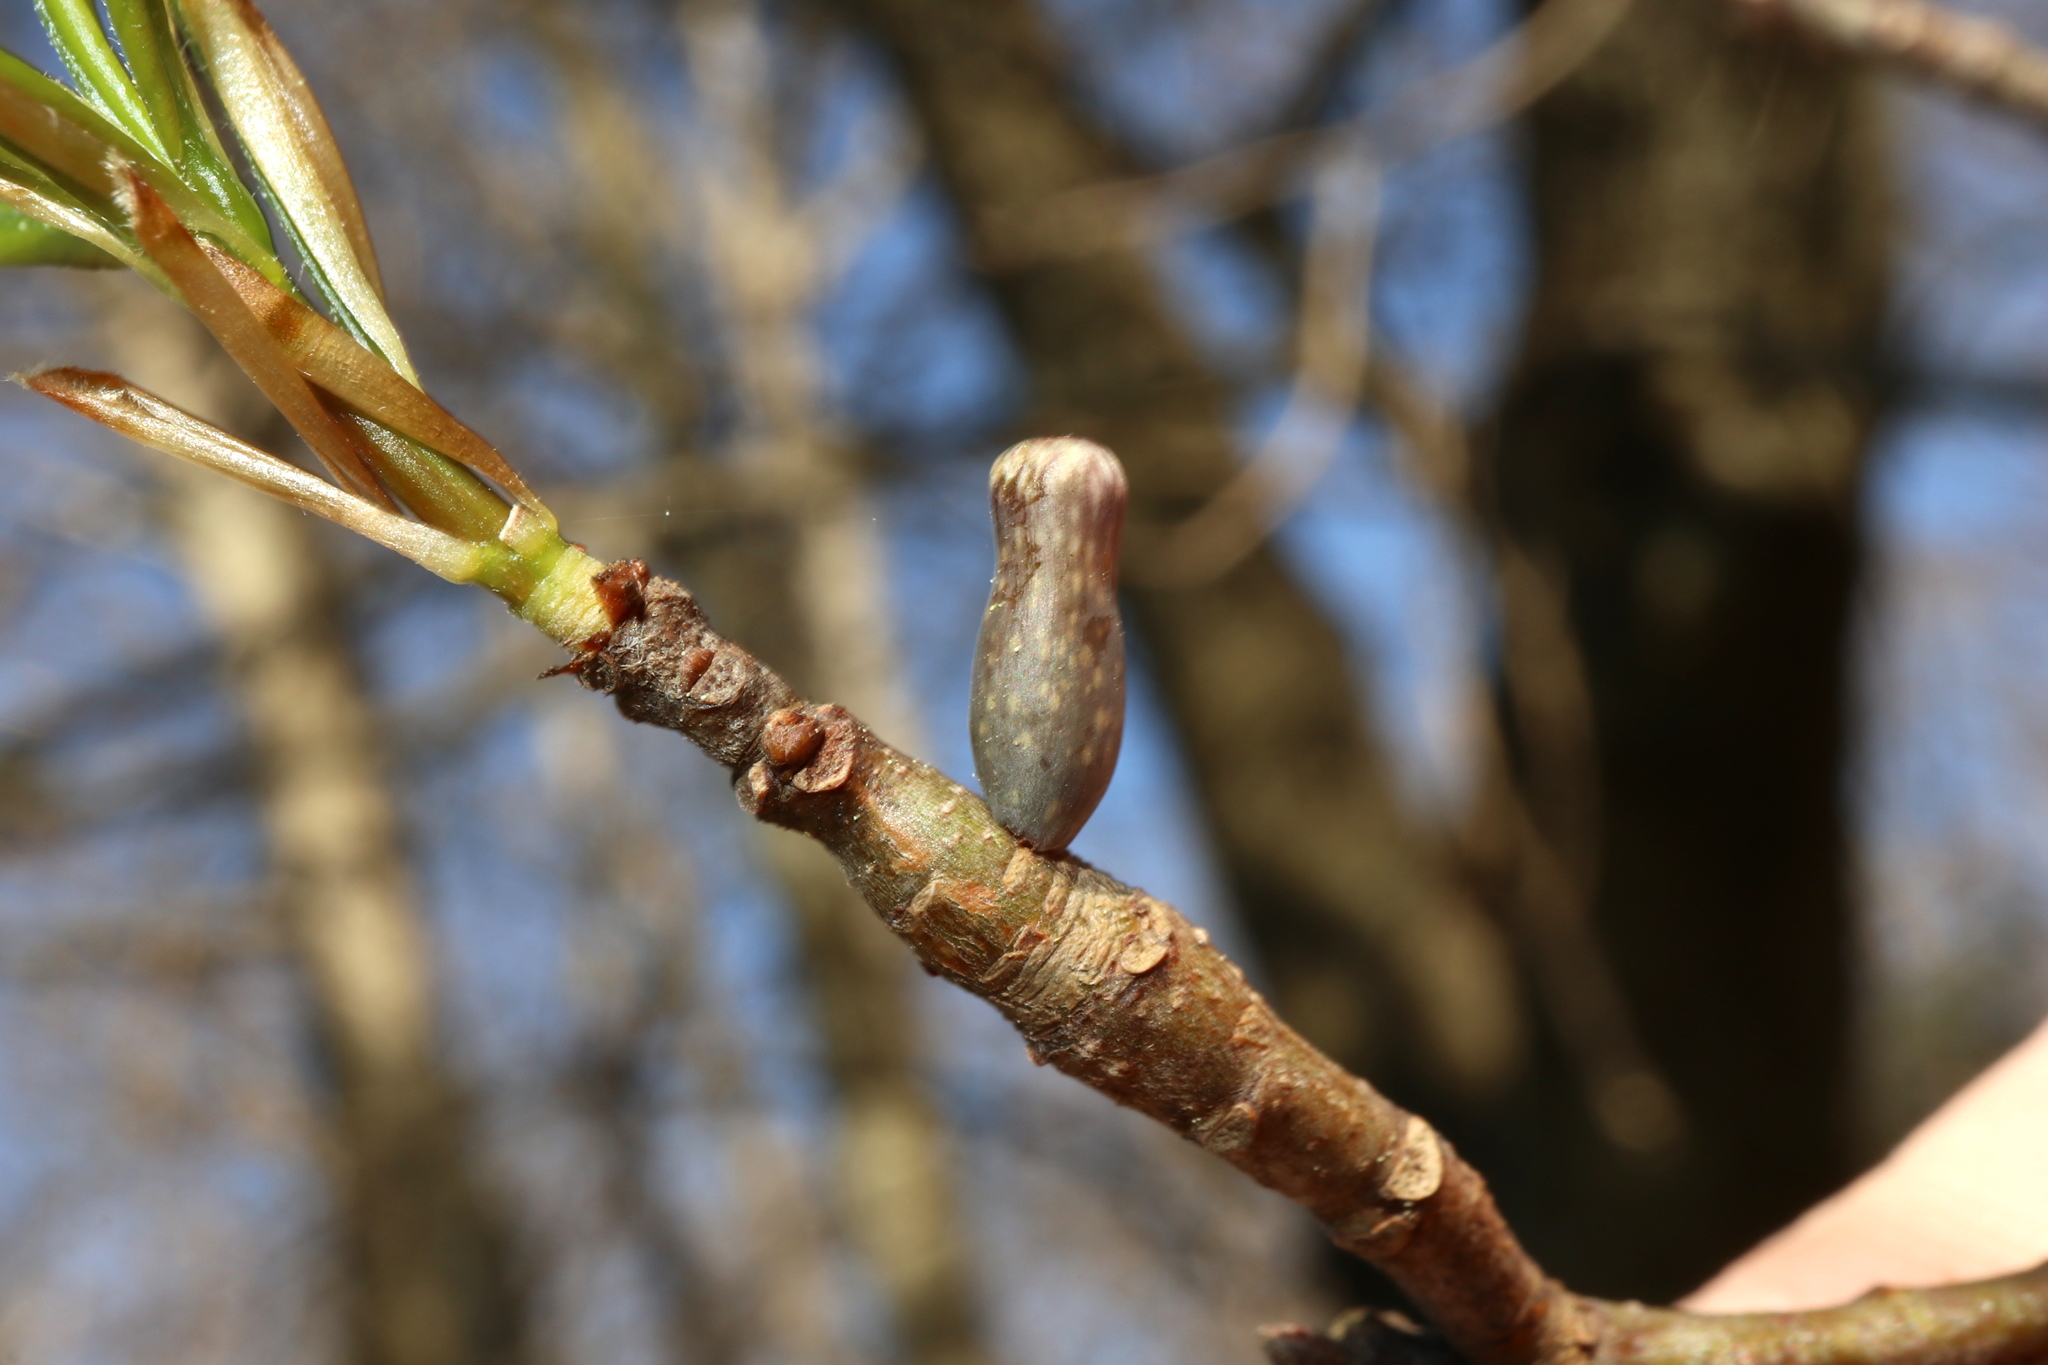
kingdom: Animalia
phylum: Arthropoda
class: Insecta
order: Hymenoptera
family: Cynipidae
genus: Amphibolips
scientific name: Amphibolips
